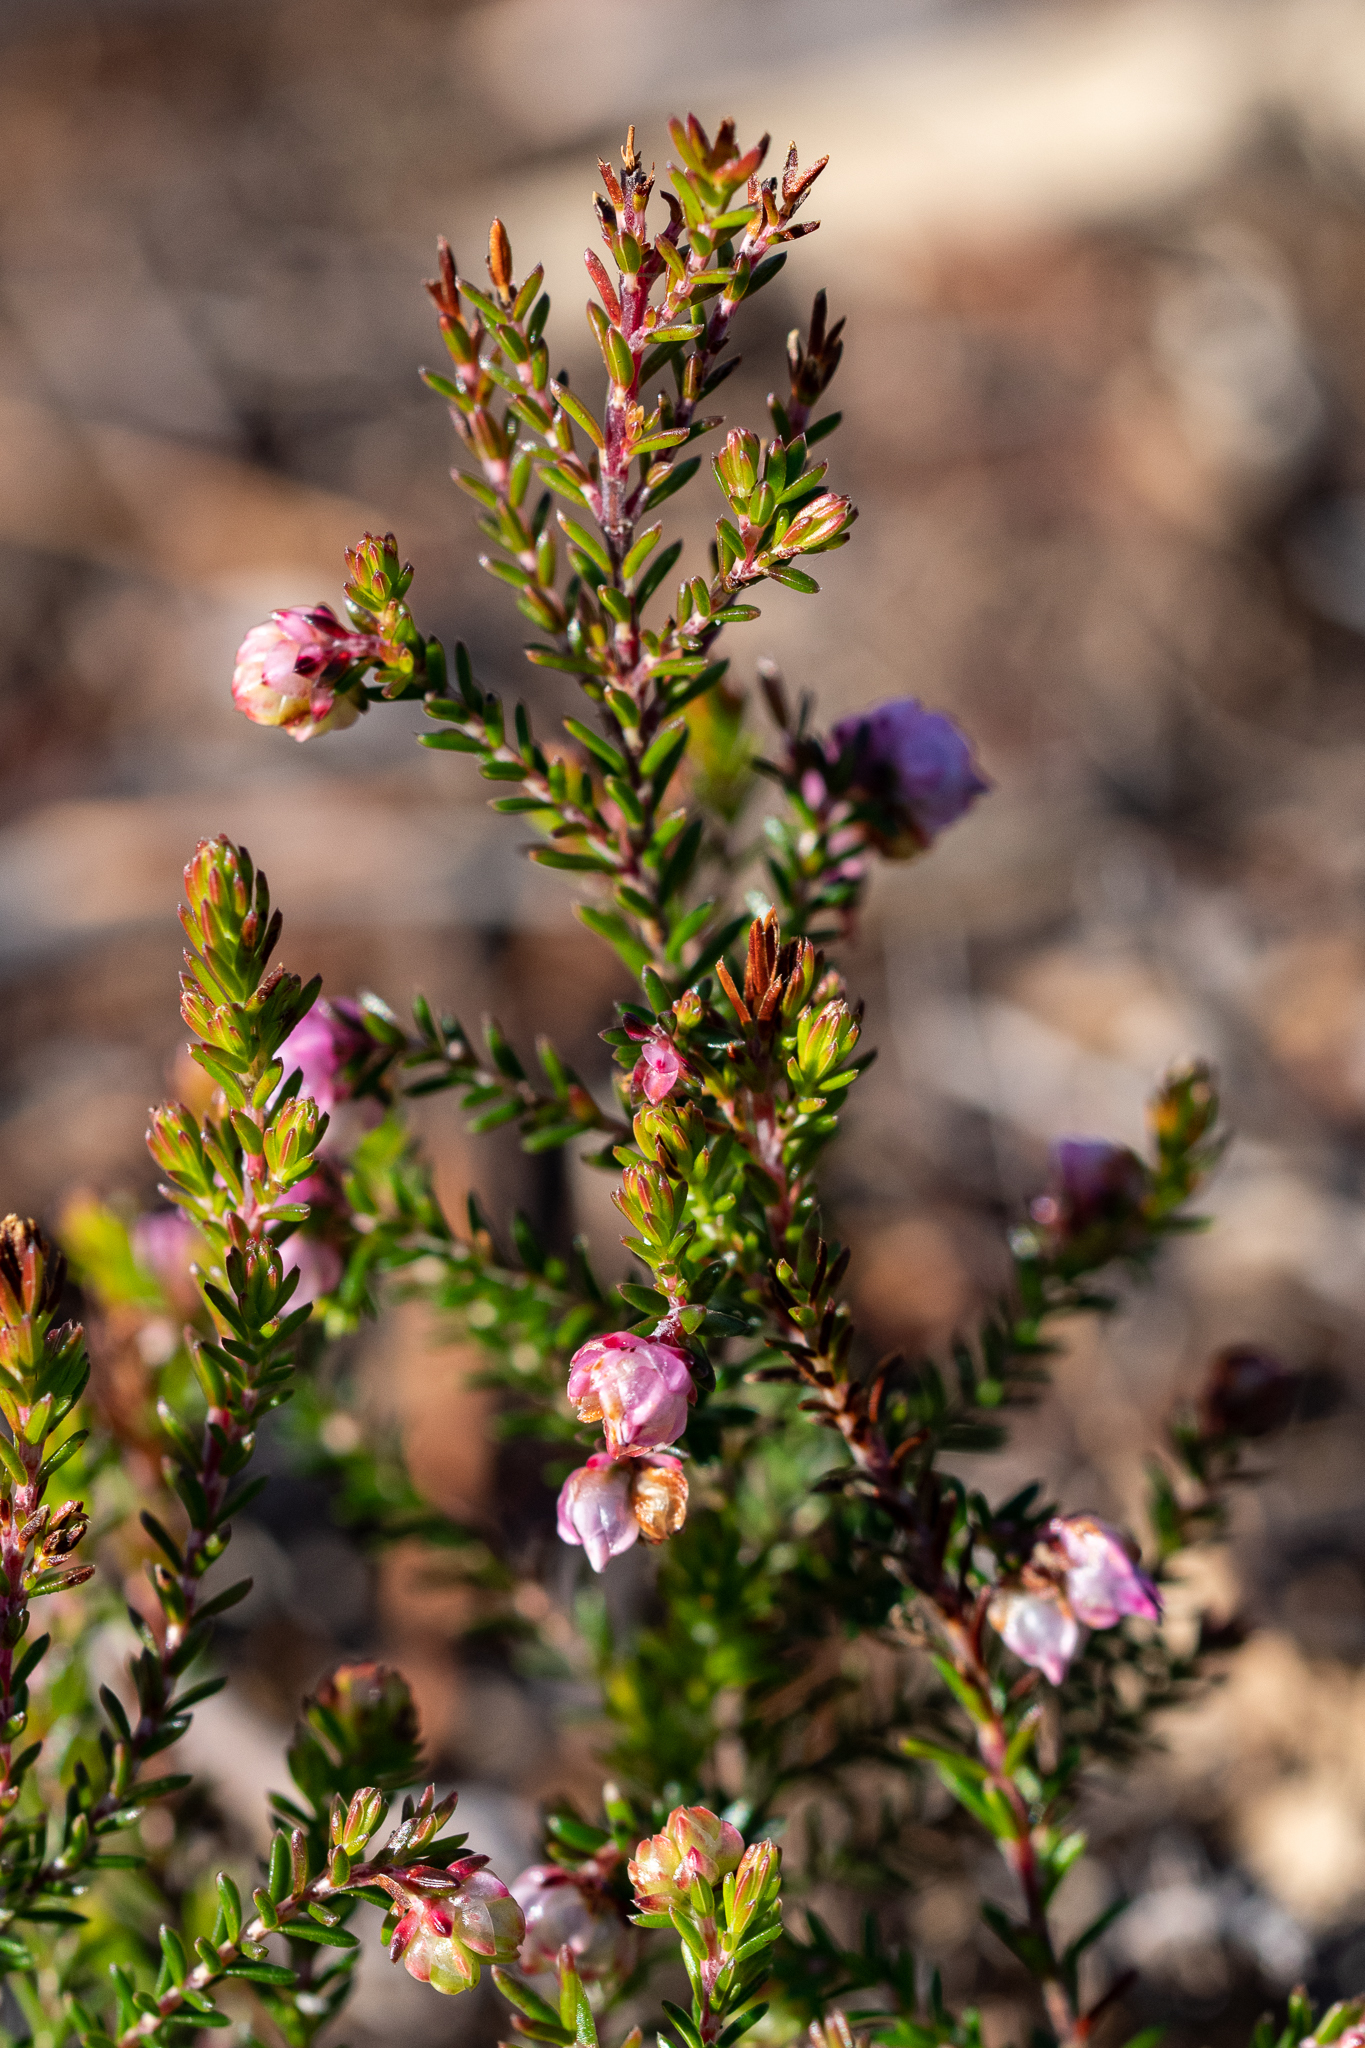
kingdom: Plantae
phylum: Tracheophyta
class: Magnoliopsida
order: Ericales
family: Ericaceae
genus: Erica
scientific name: Erica spumosa
